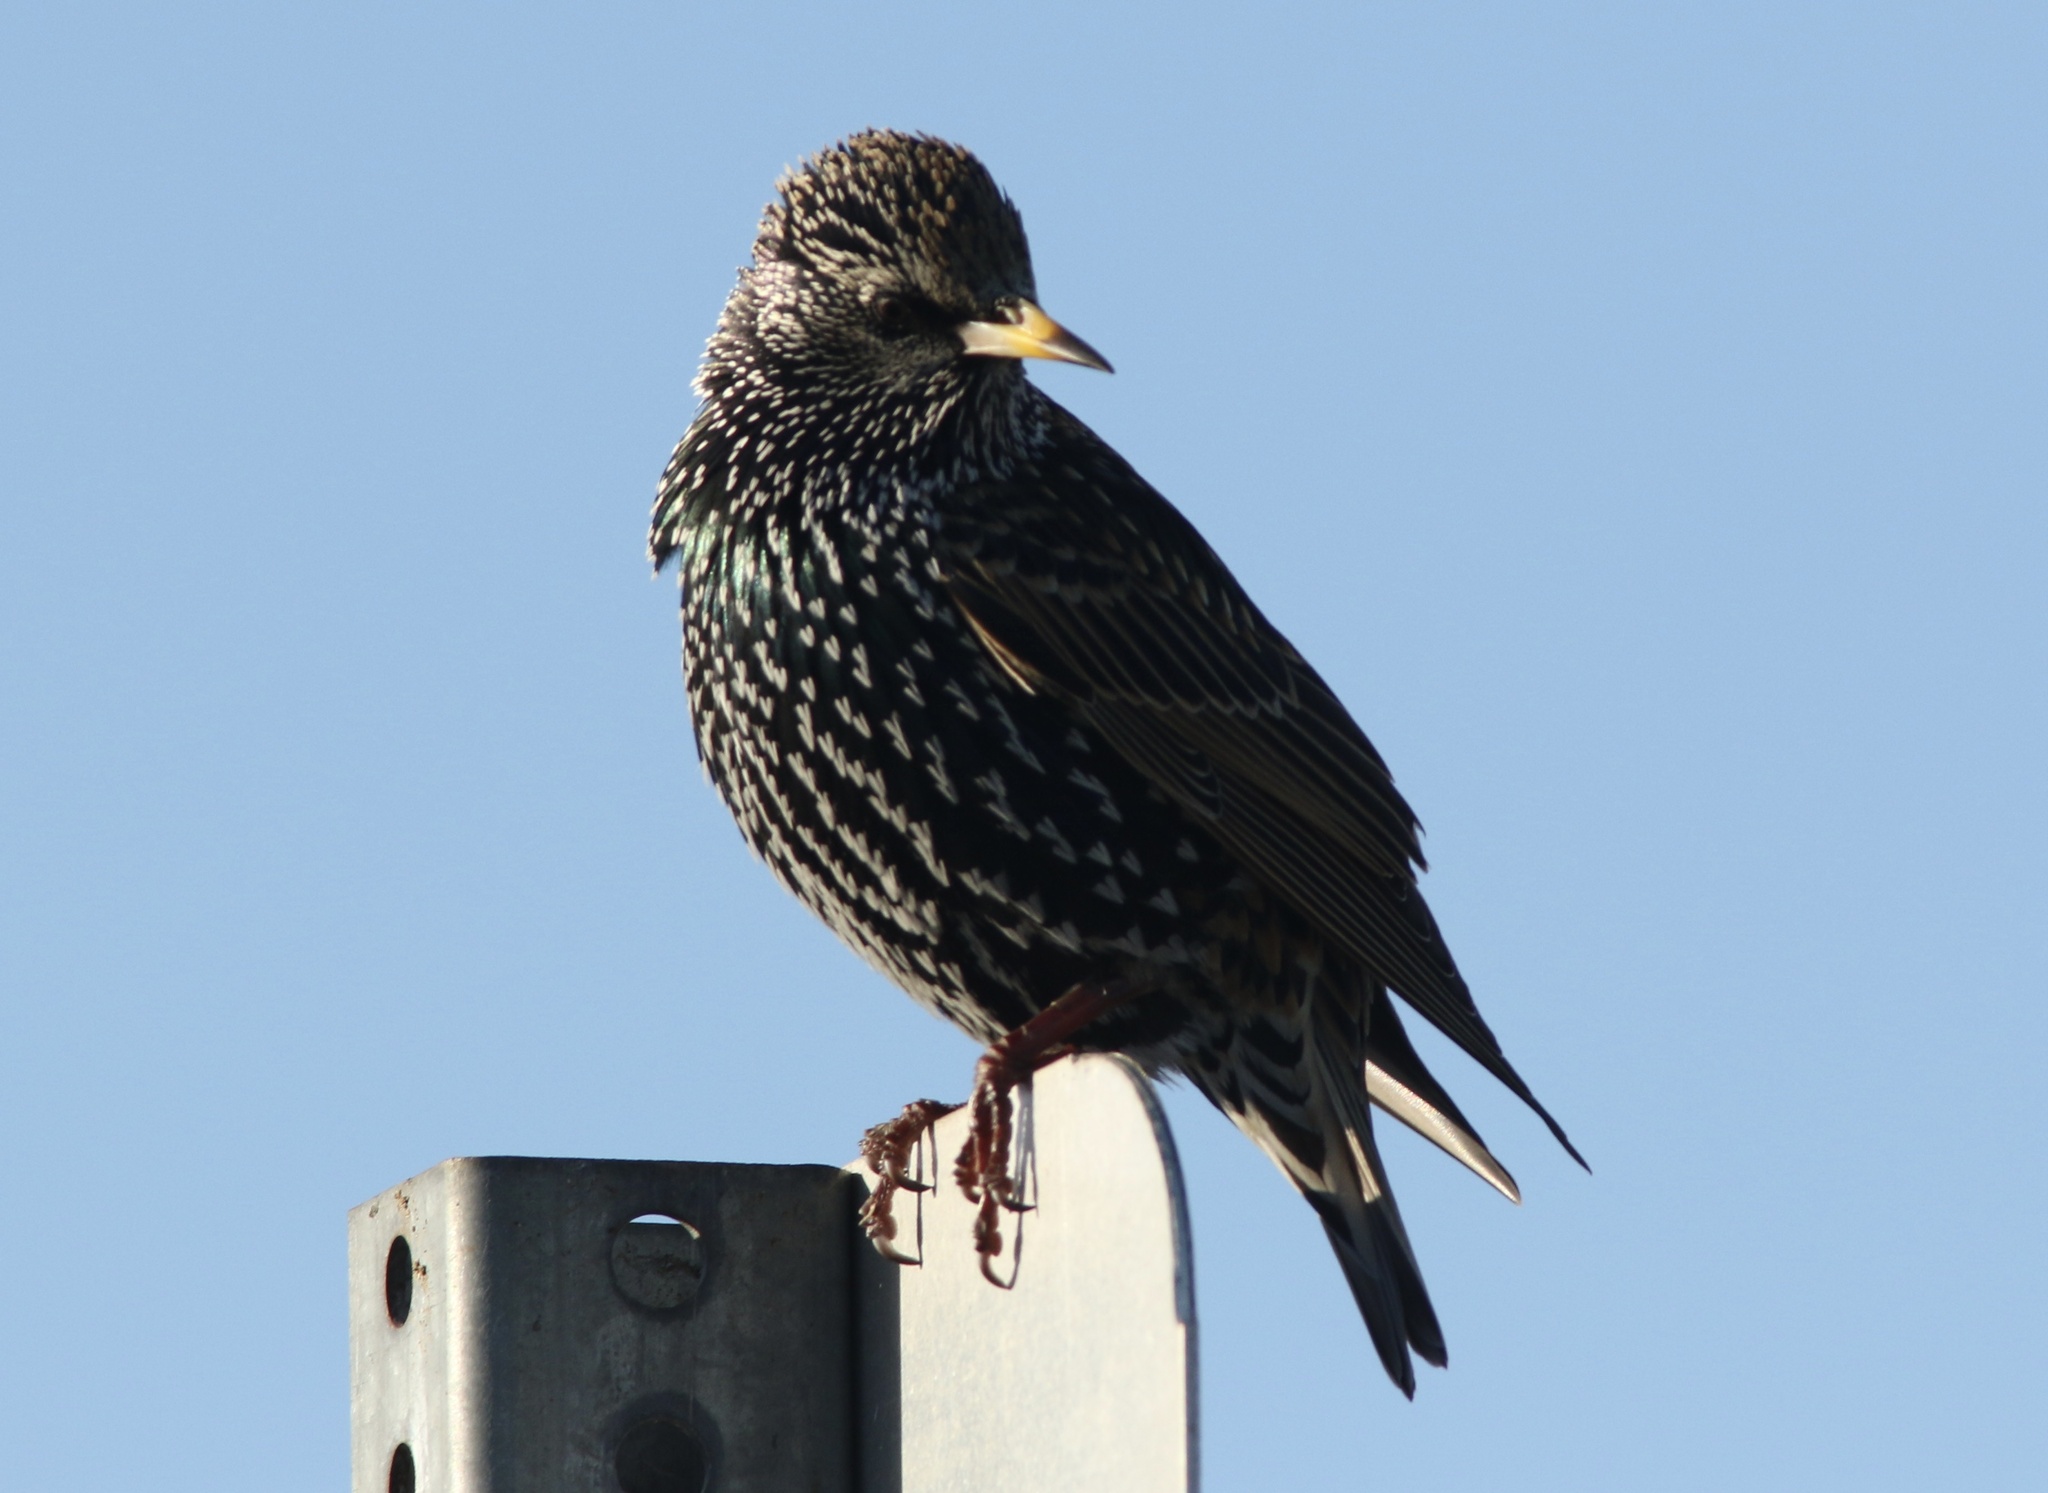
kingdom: Animalia
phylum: Chordata
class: Aves
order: Passeriformes
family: Sturnidae
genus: Sturnus
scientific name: Sturnus vulgaris
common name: Common starling
